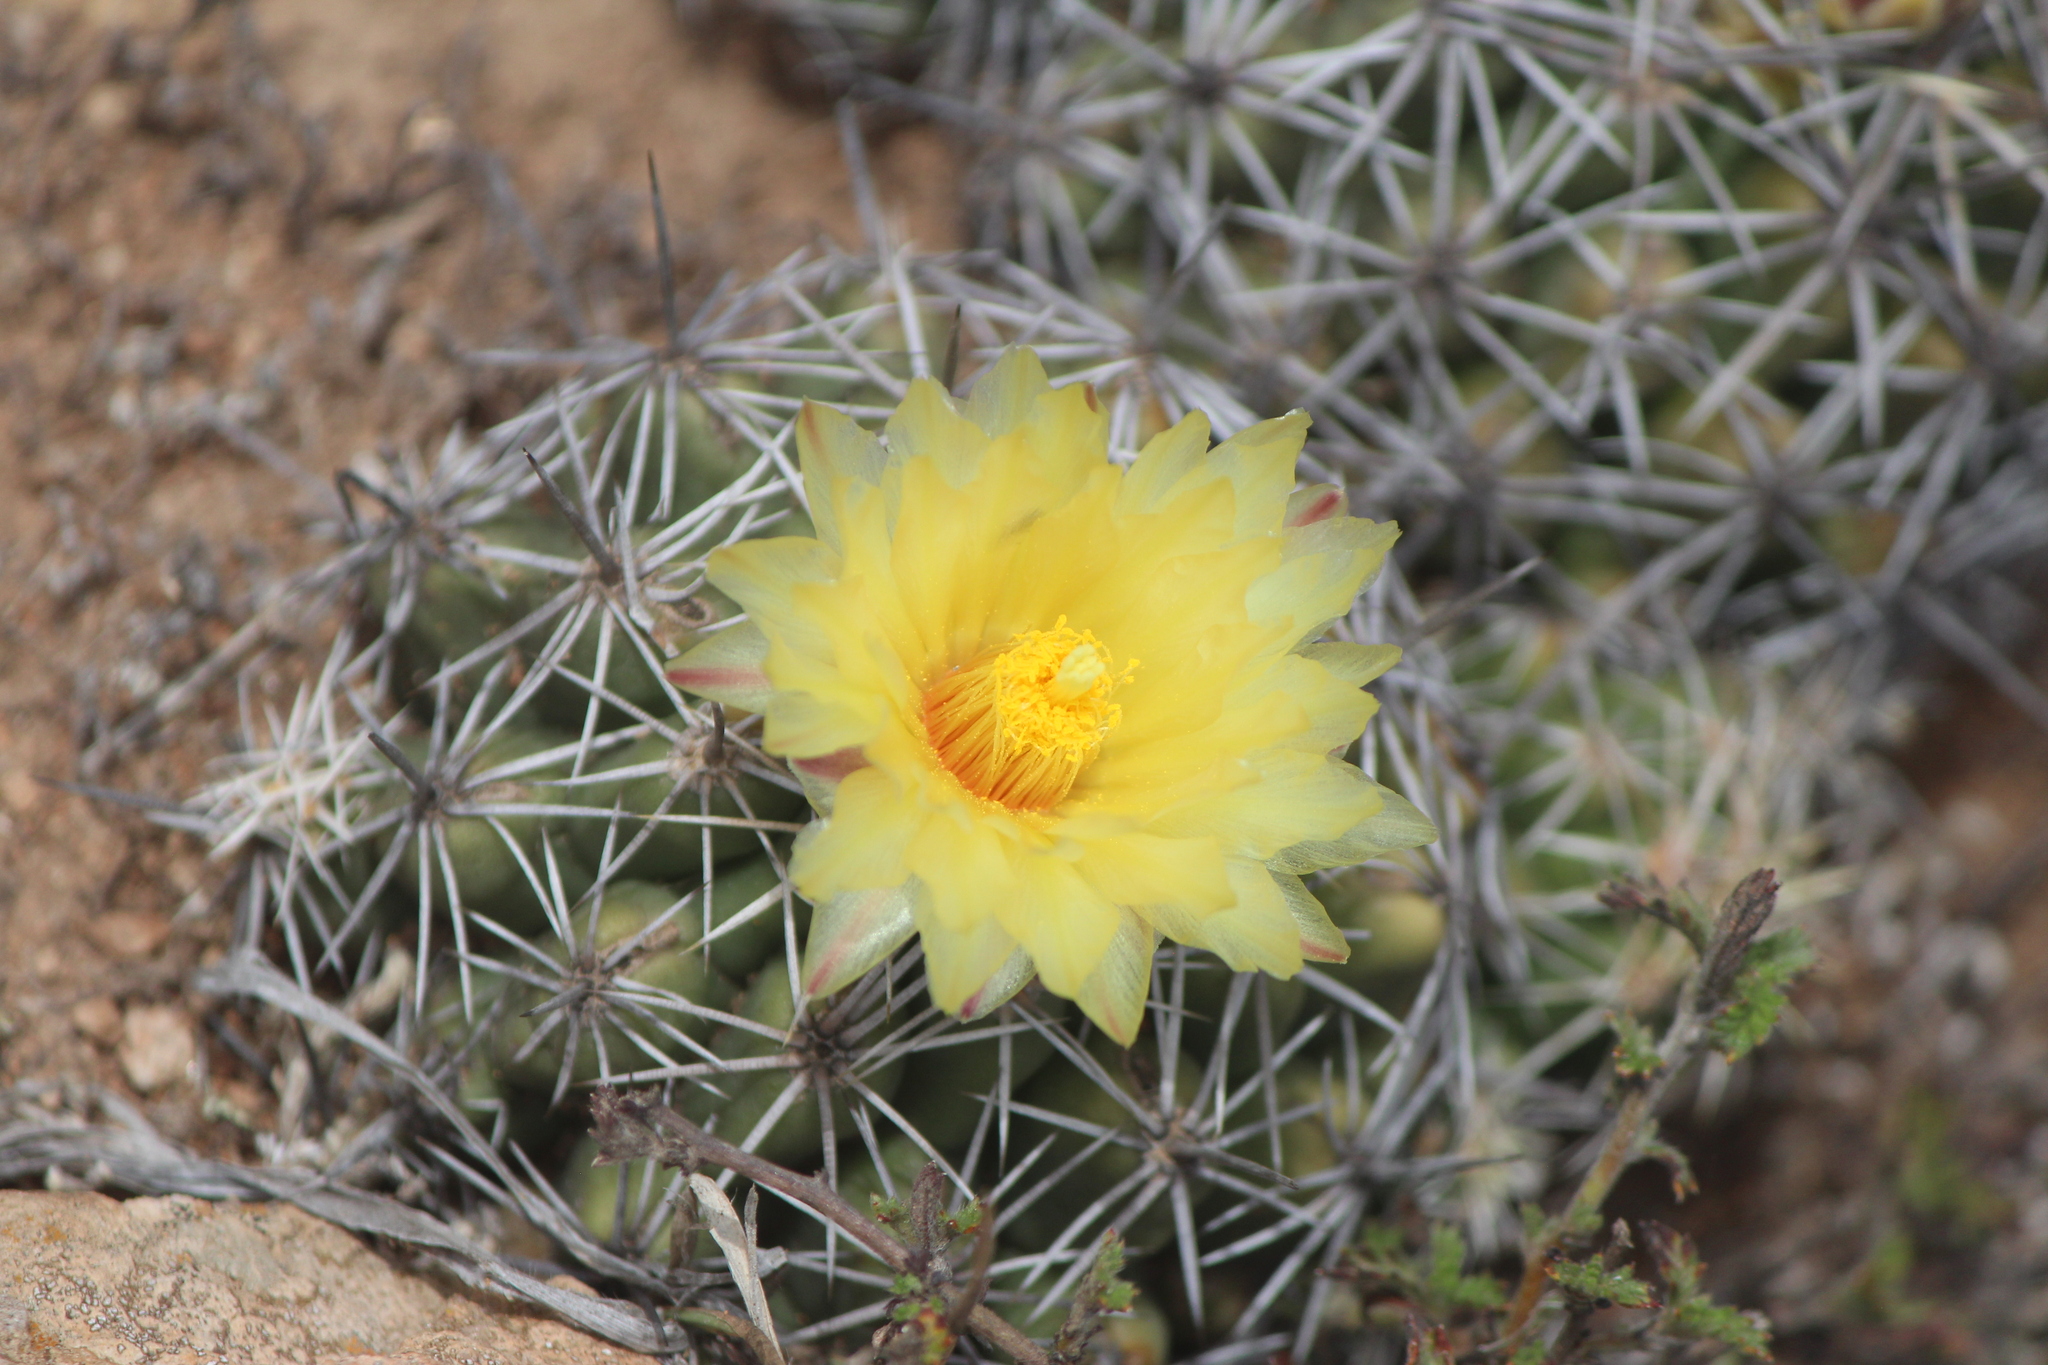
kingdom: Plantae
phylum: Tracheophyta
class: Magnoliopsida
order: Caryophyllales
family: Cactaceae
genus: Thelocactus
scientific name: Thelocactus leucacanthus
